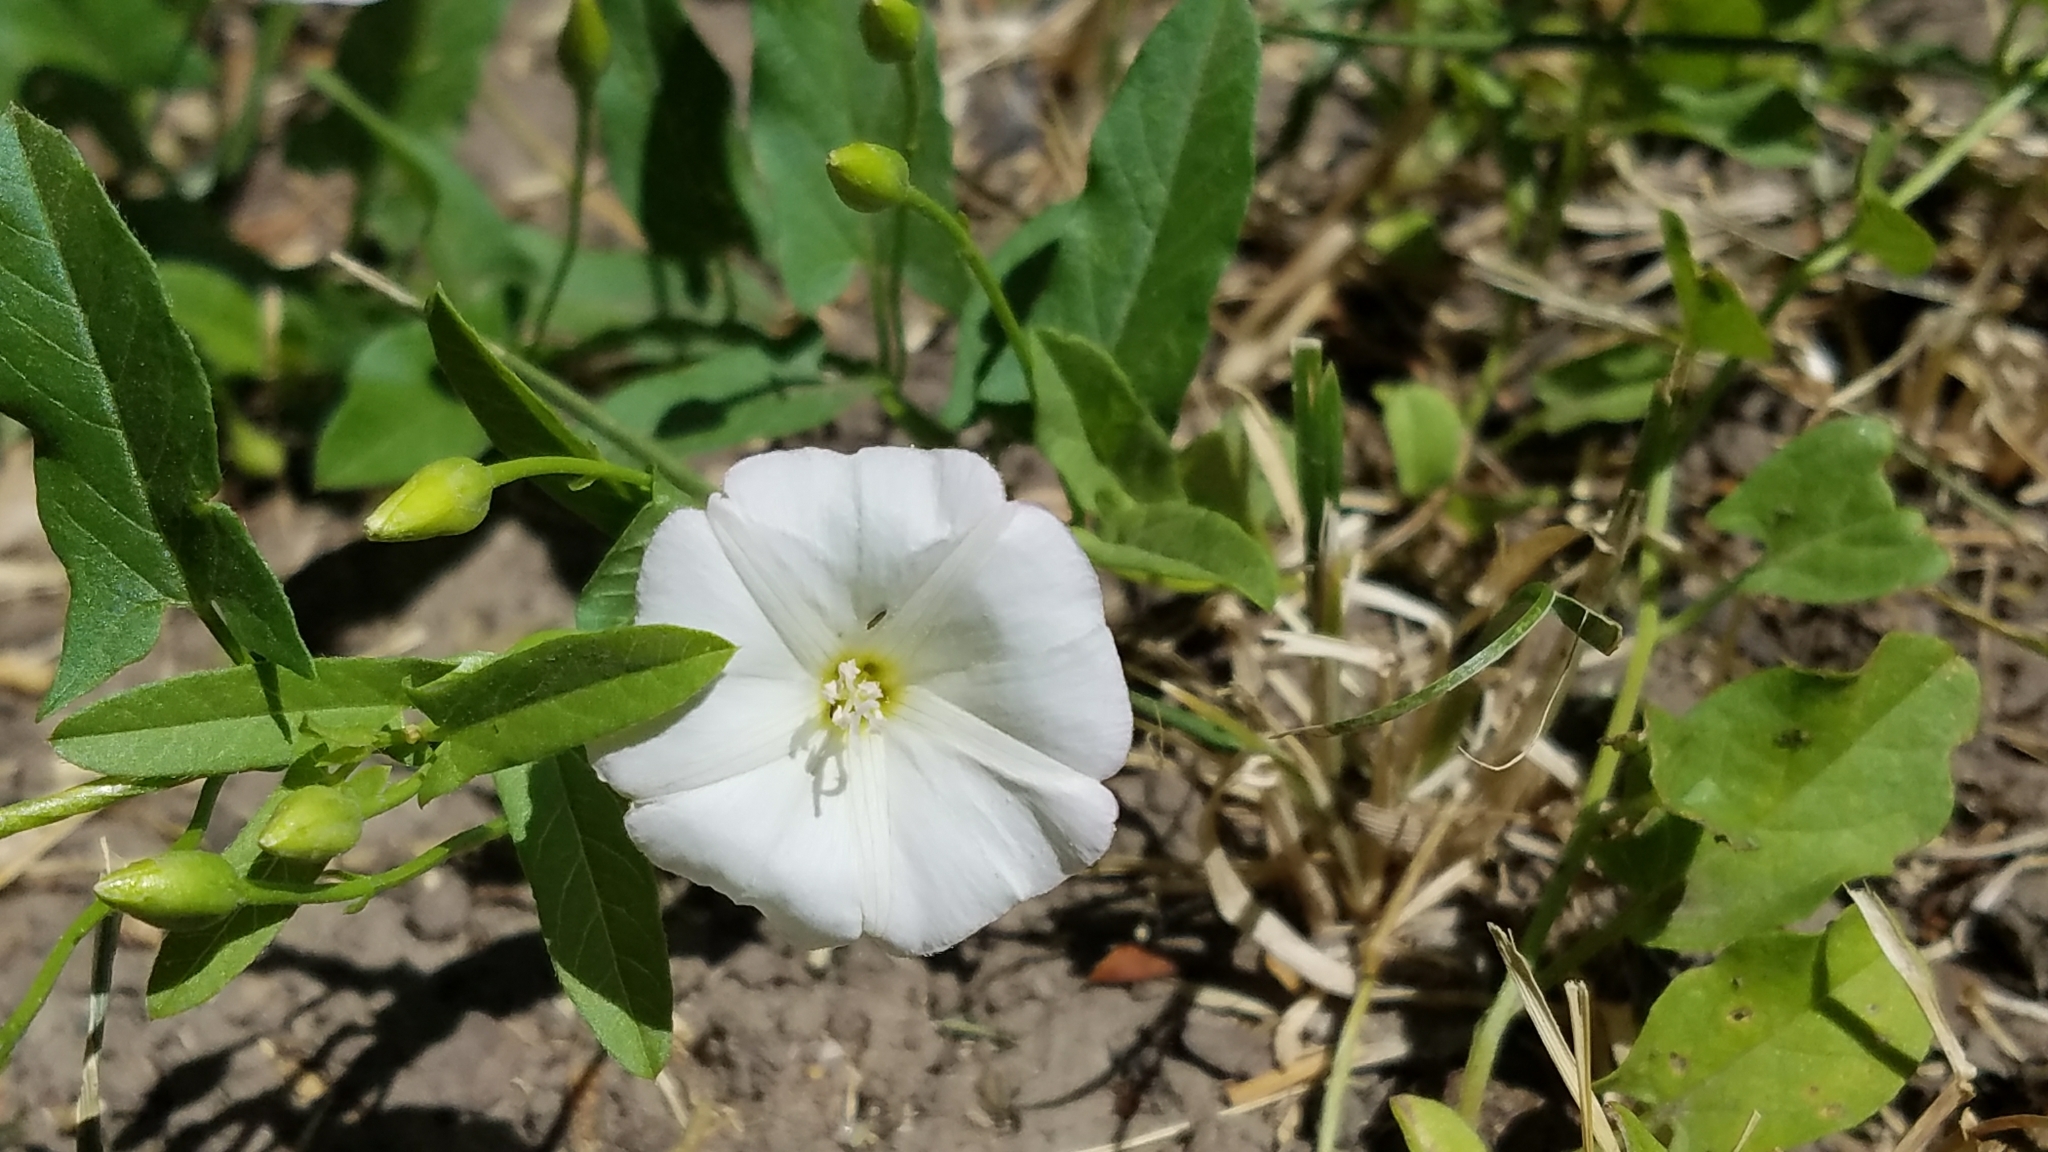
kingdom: Plantae
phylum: Tracheophyta
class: Magnoliopsida
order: Solanales
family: Convolvulaceae
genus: Convolvulus
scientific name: Convolvulus arvensis
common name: Field bindweed
